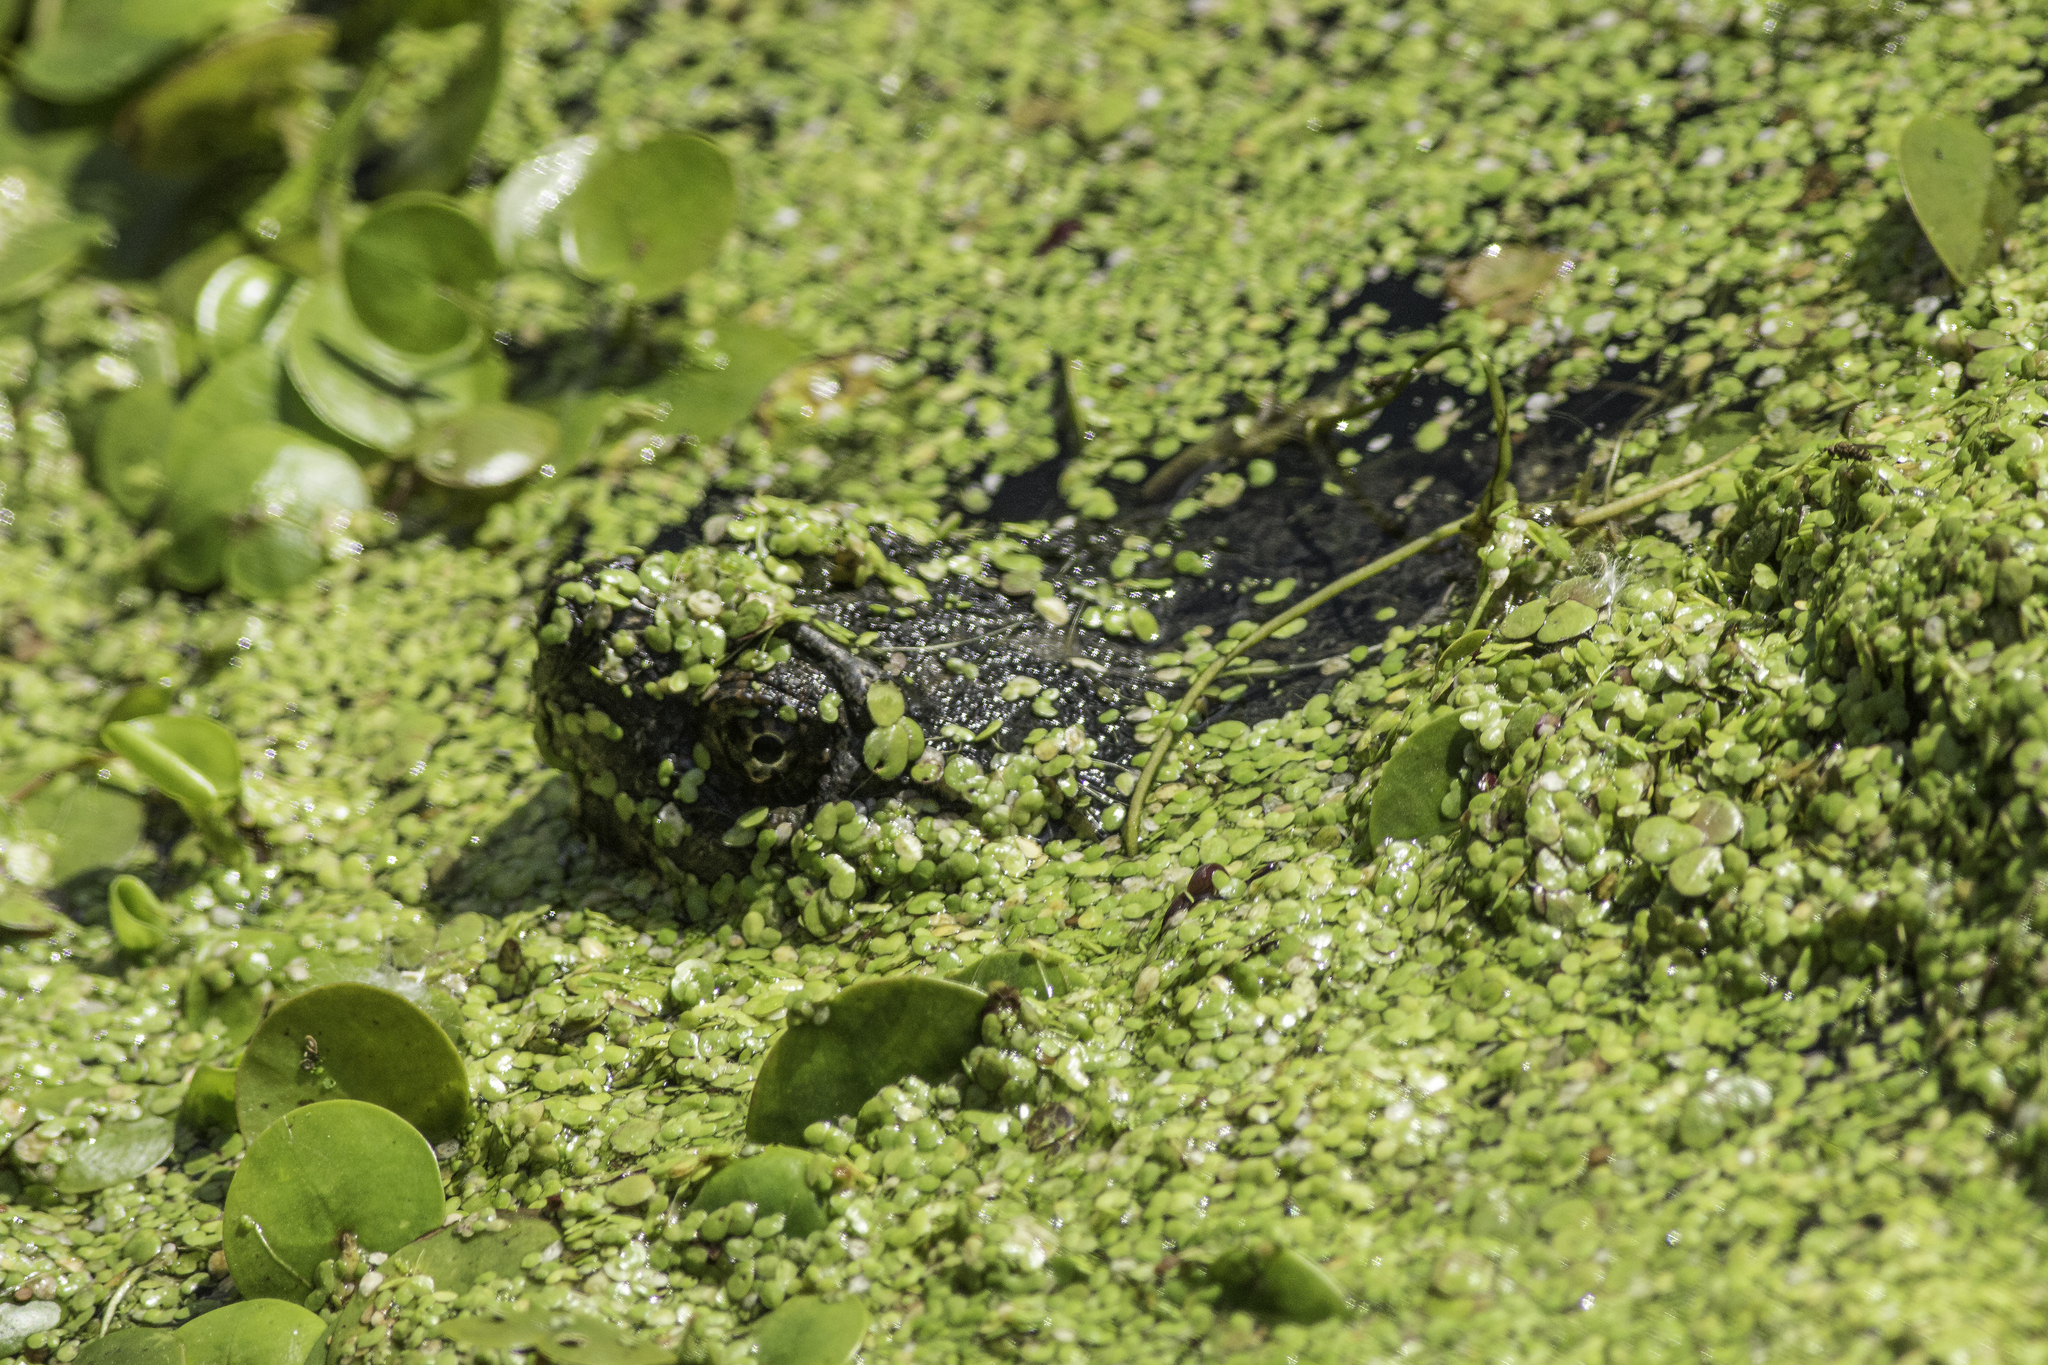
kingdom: Animalia
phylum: Chordata
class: Testudines
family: Chelydridae
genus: Chelydra
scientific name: Chelydra serpentina
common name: Common snapping turtle
